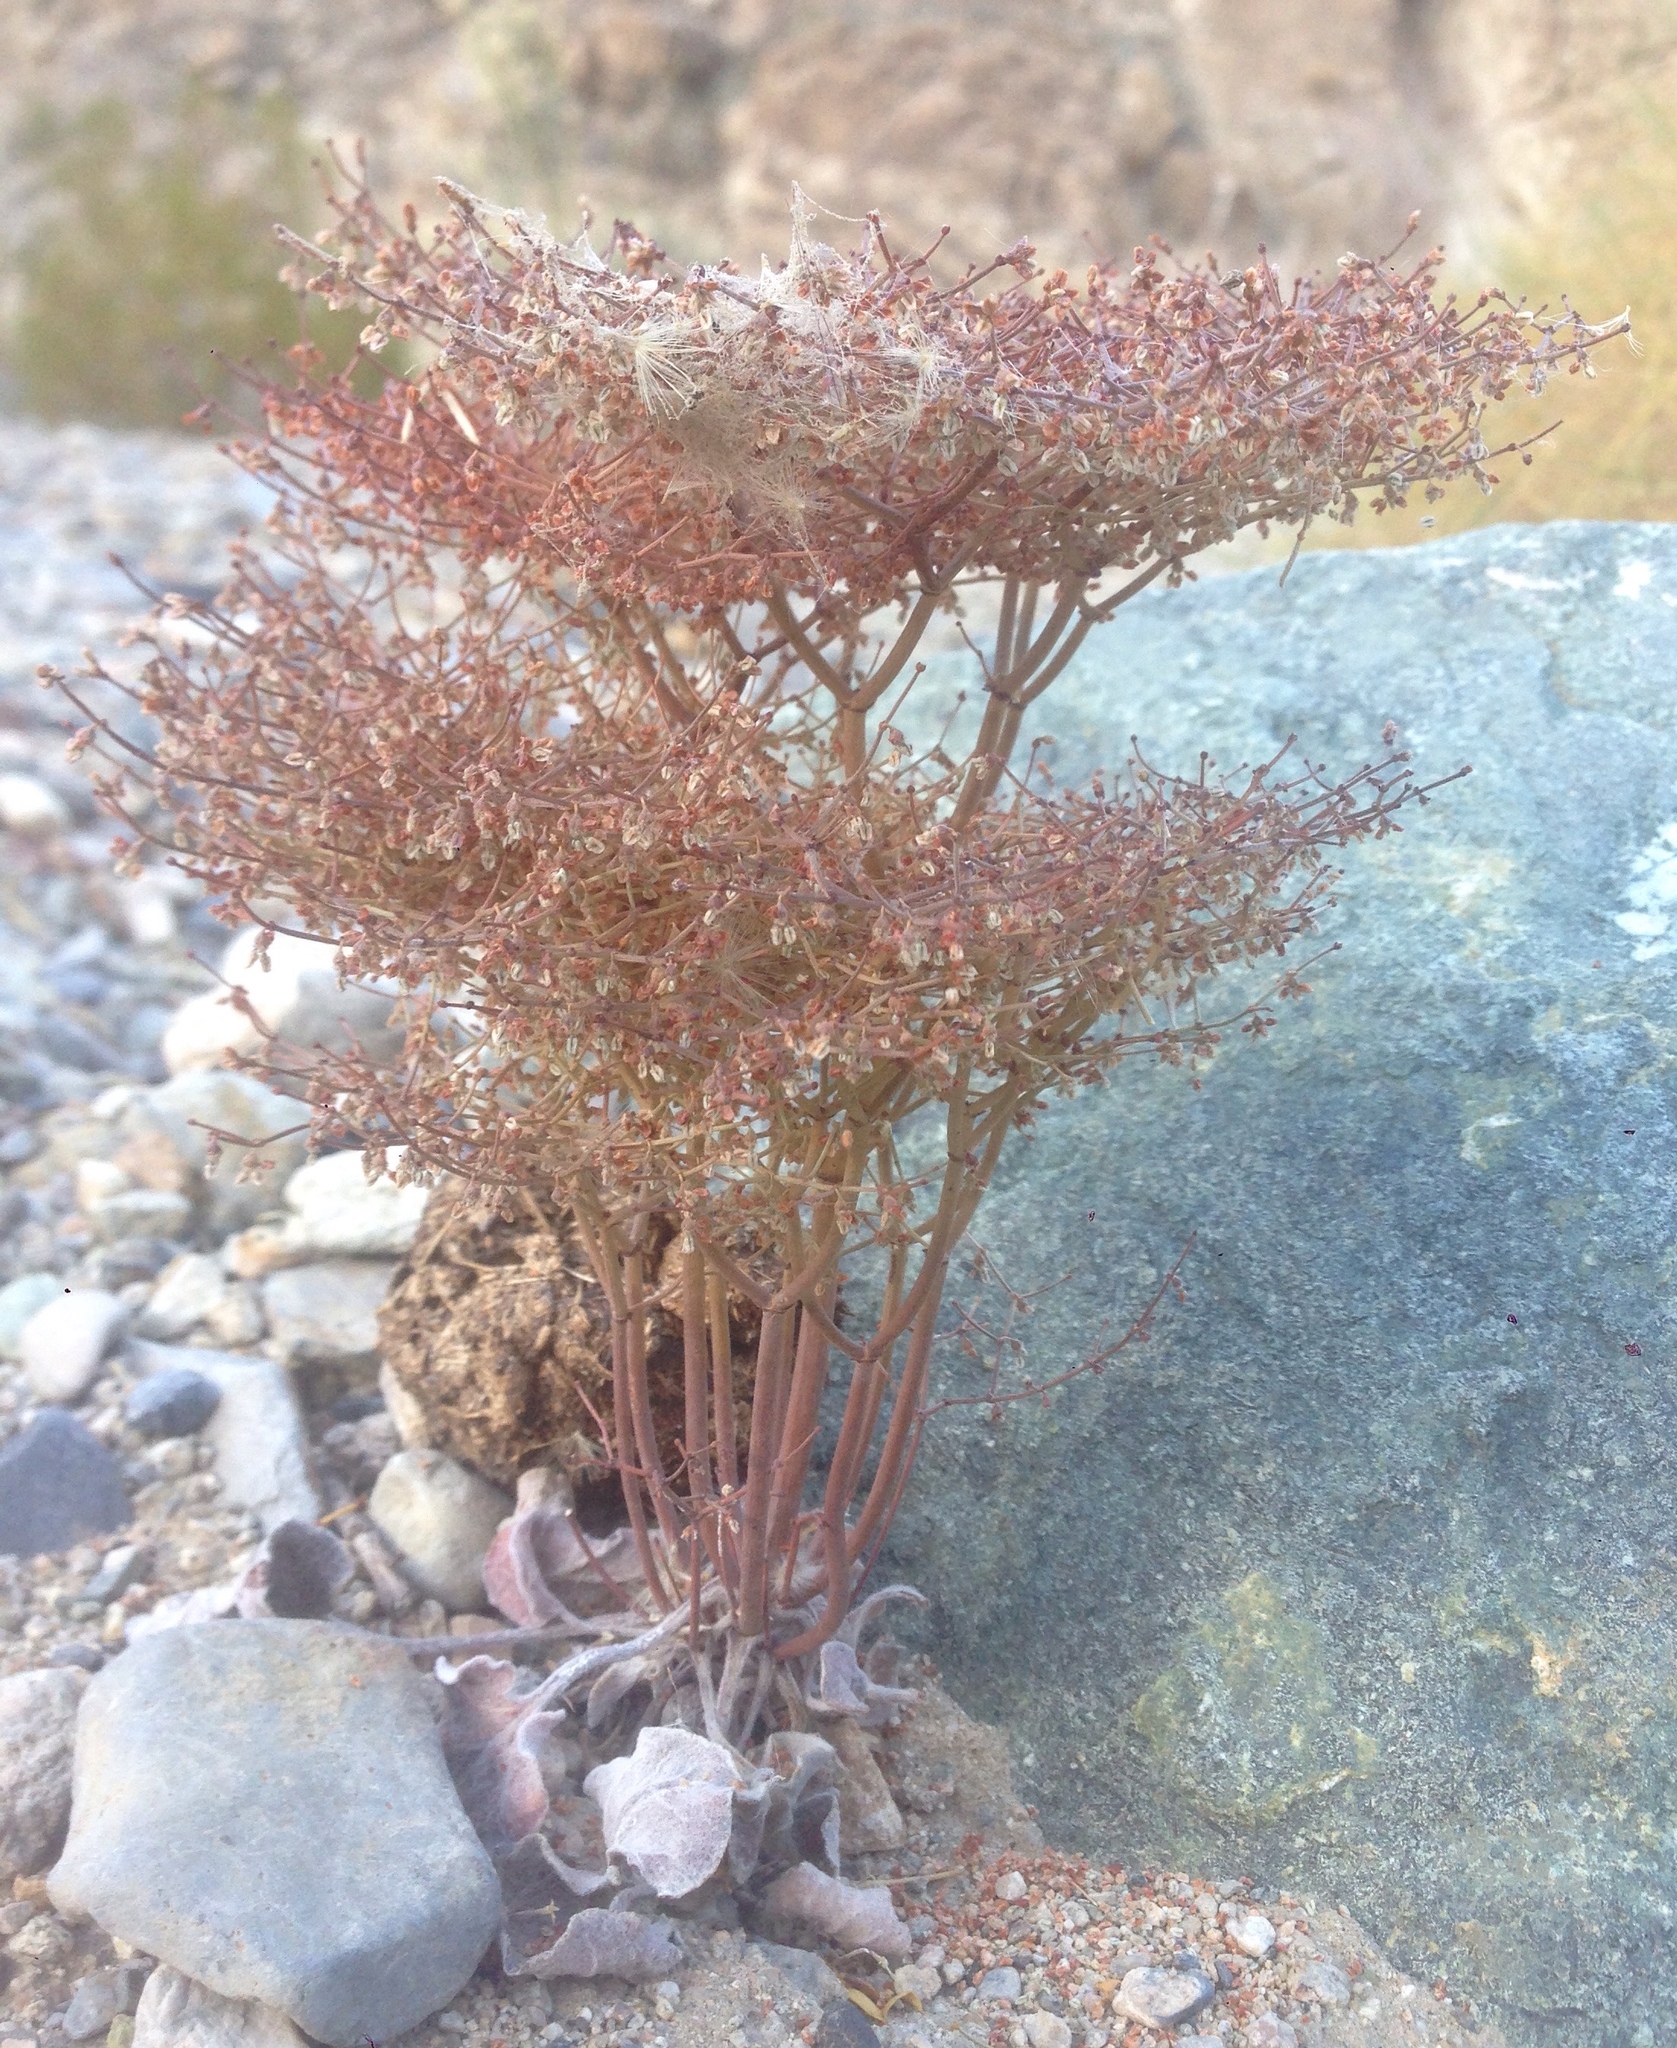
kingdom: Plantae
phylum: Tracheophyta
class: Magnoliopsida
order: Caryophyllales
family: Polygonaceae
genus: Eriogonum
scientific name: Eriogonum rixfordii
